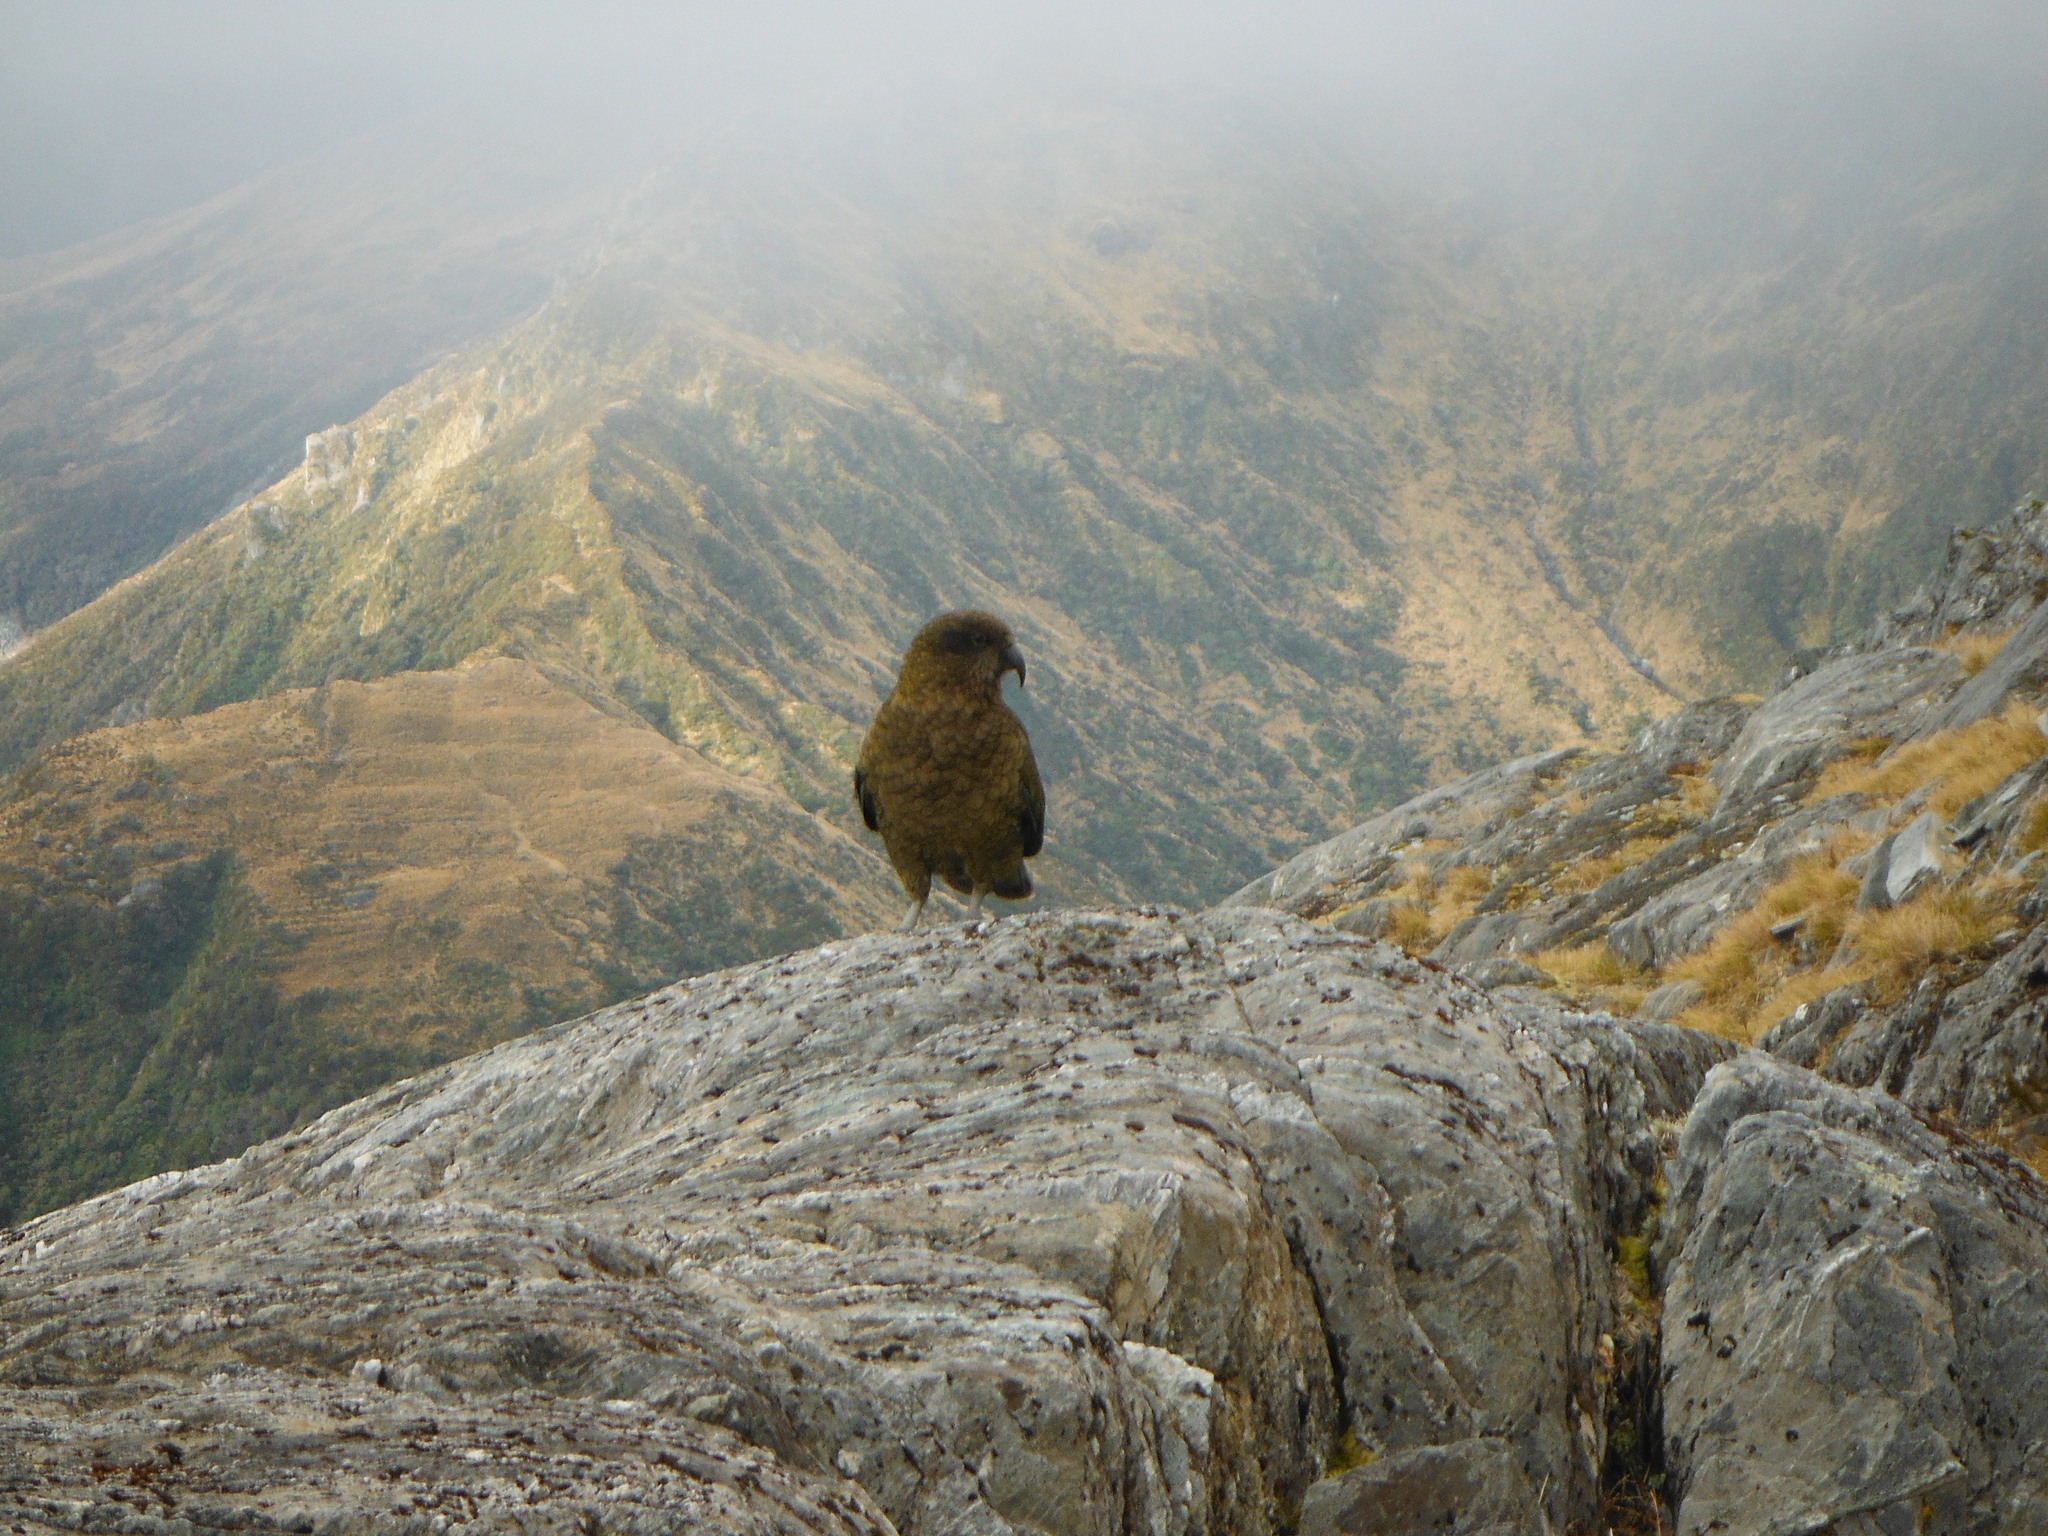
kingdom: Animalia
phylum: Chordata
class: Aves
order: Psittaciformes
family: Psittacidae
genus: Nestor
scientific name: Nestor notabilis
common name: Kea
